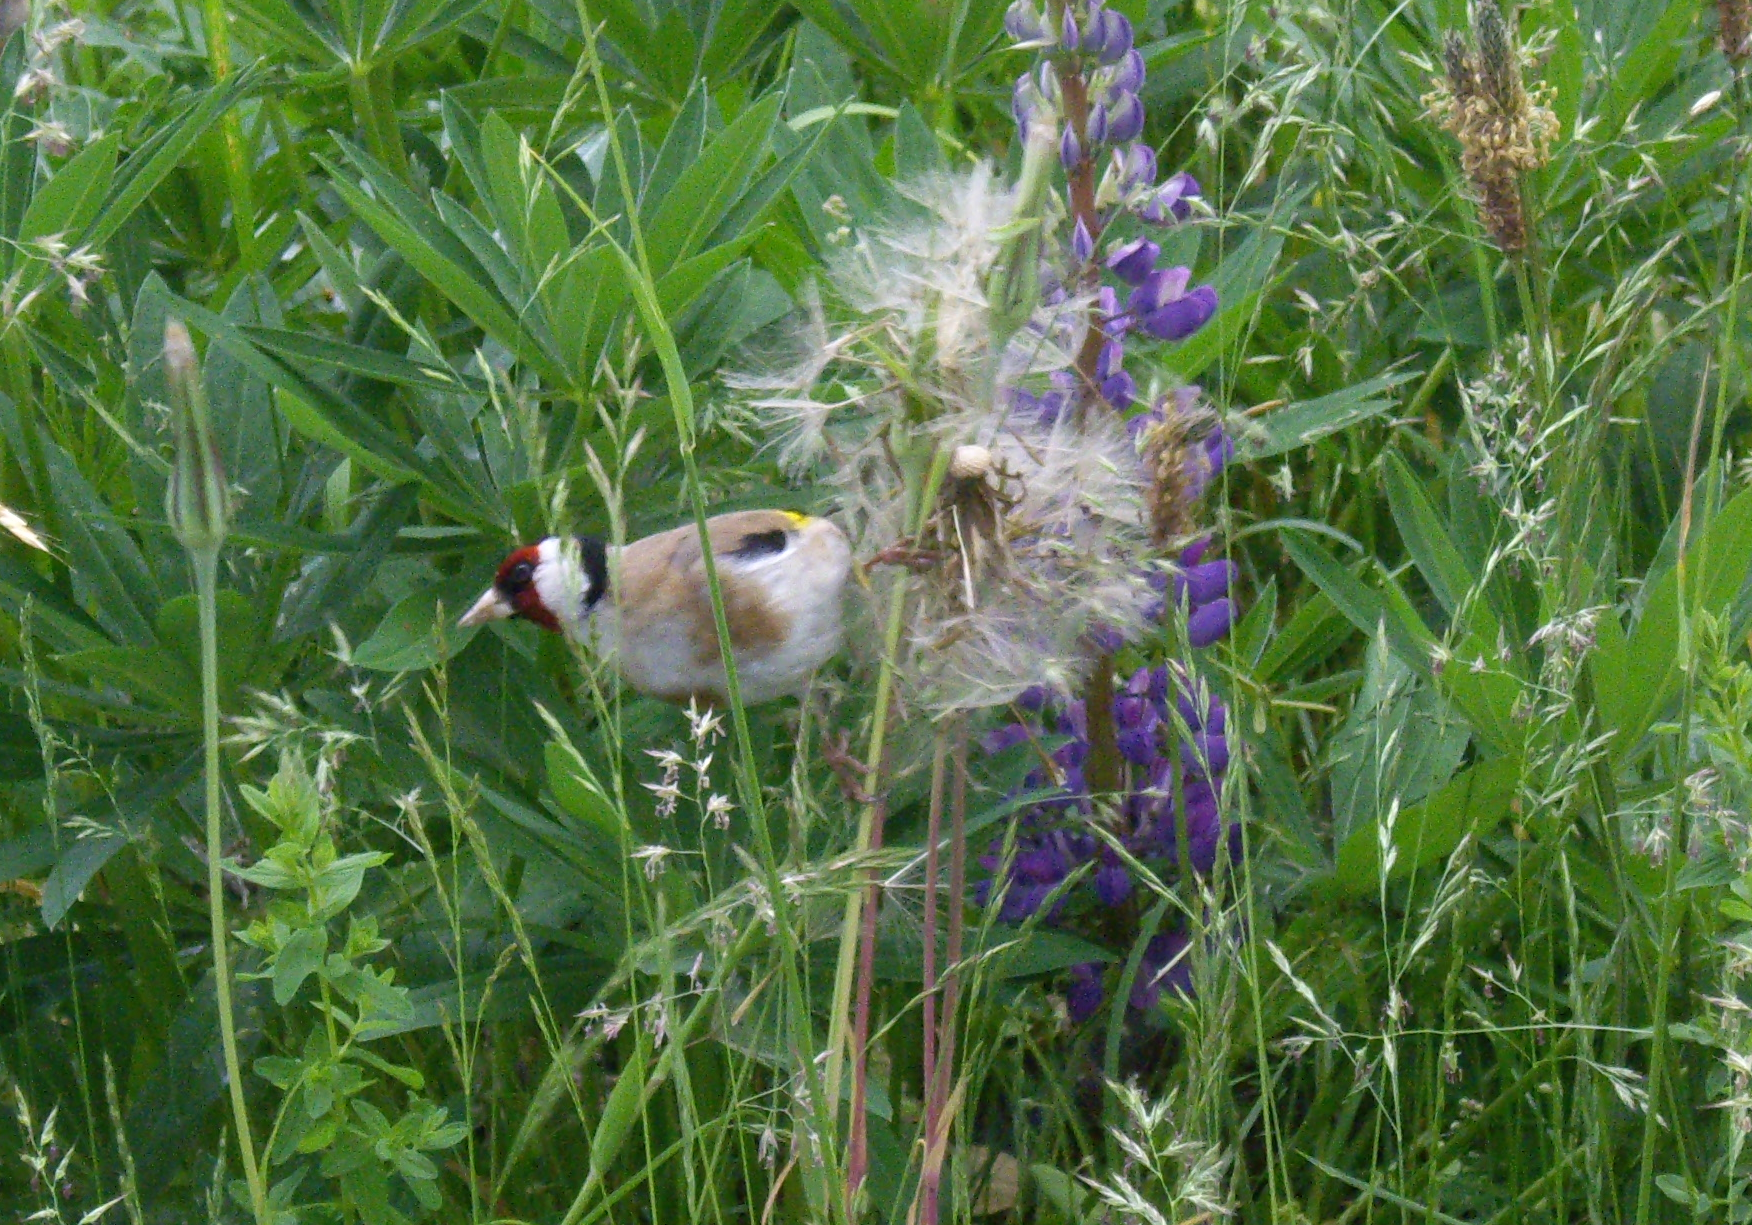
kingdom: Animalia
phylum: Chordata
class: Aves
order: Passeriformes
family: Fringillidae
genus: Carduelis
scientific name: Carduelis carduelis
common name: European goldfinch
